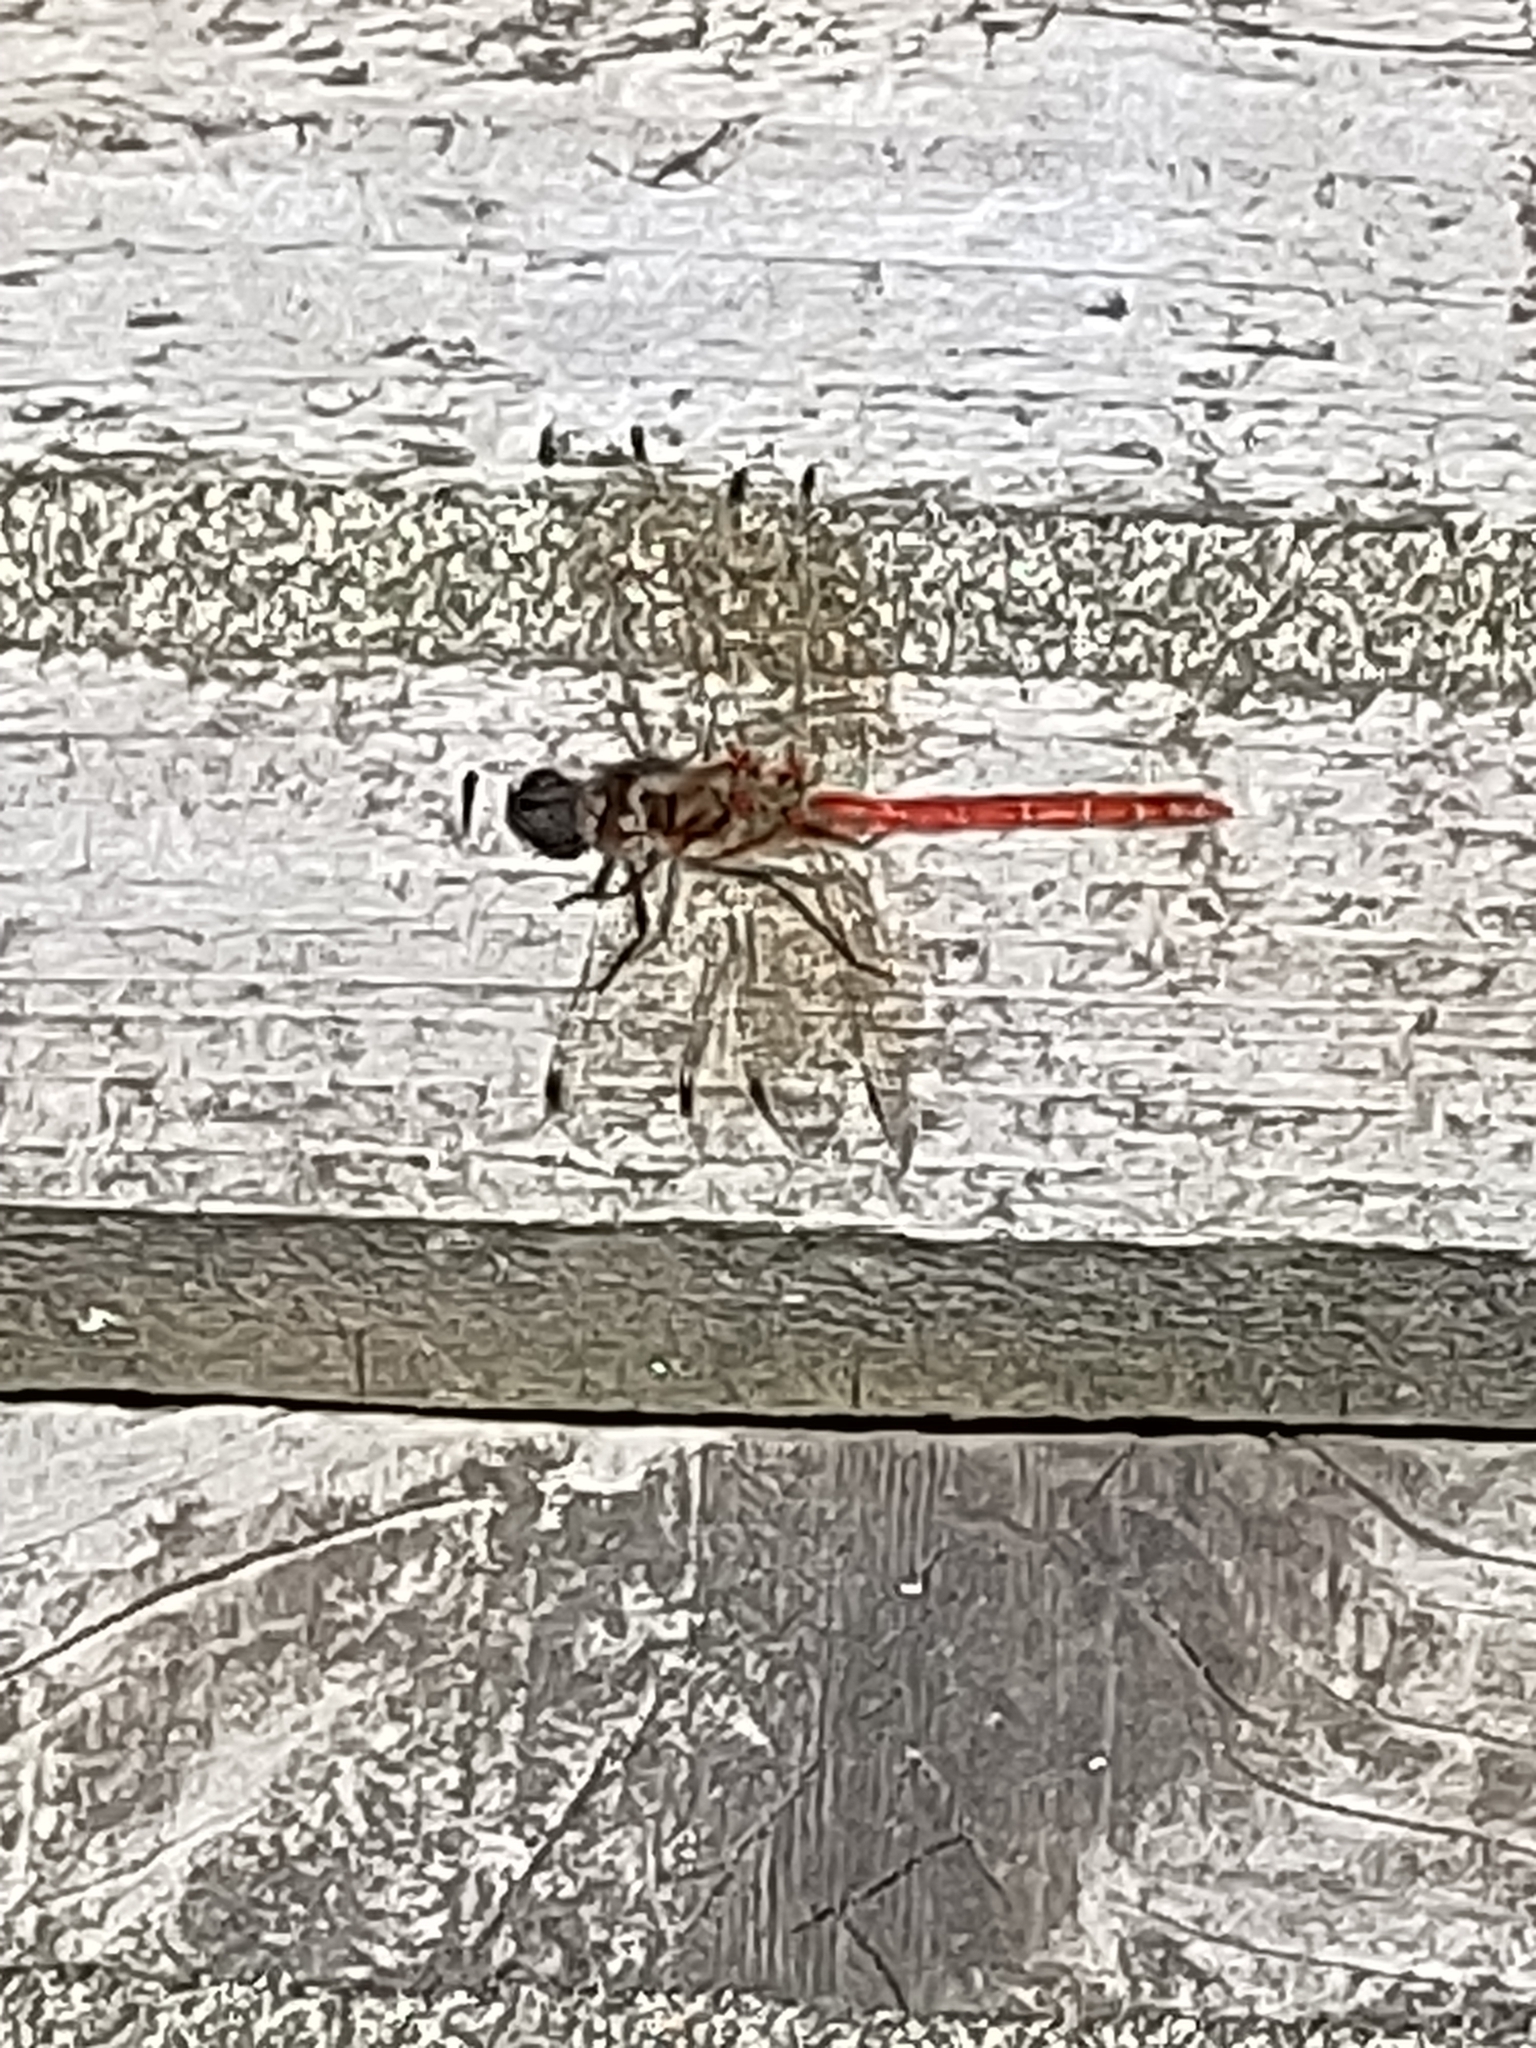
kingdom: Animalia
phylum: Arthropoda
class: Insecta
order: Odonata
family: Libellulidae
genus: Sympetrum
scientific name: Sympetrum striolatum
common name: Common darter
